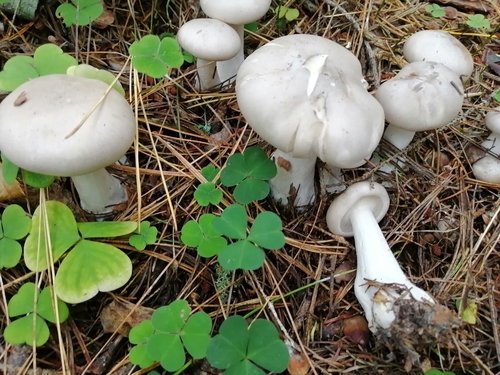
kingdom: Fungi
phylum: Basidiomycota
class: Agaricomycetes
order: Agaricales
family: Tricholomataceae
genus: Clitocybe
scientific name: Clitocybe nebularis
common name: Clouded agaric
